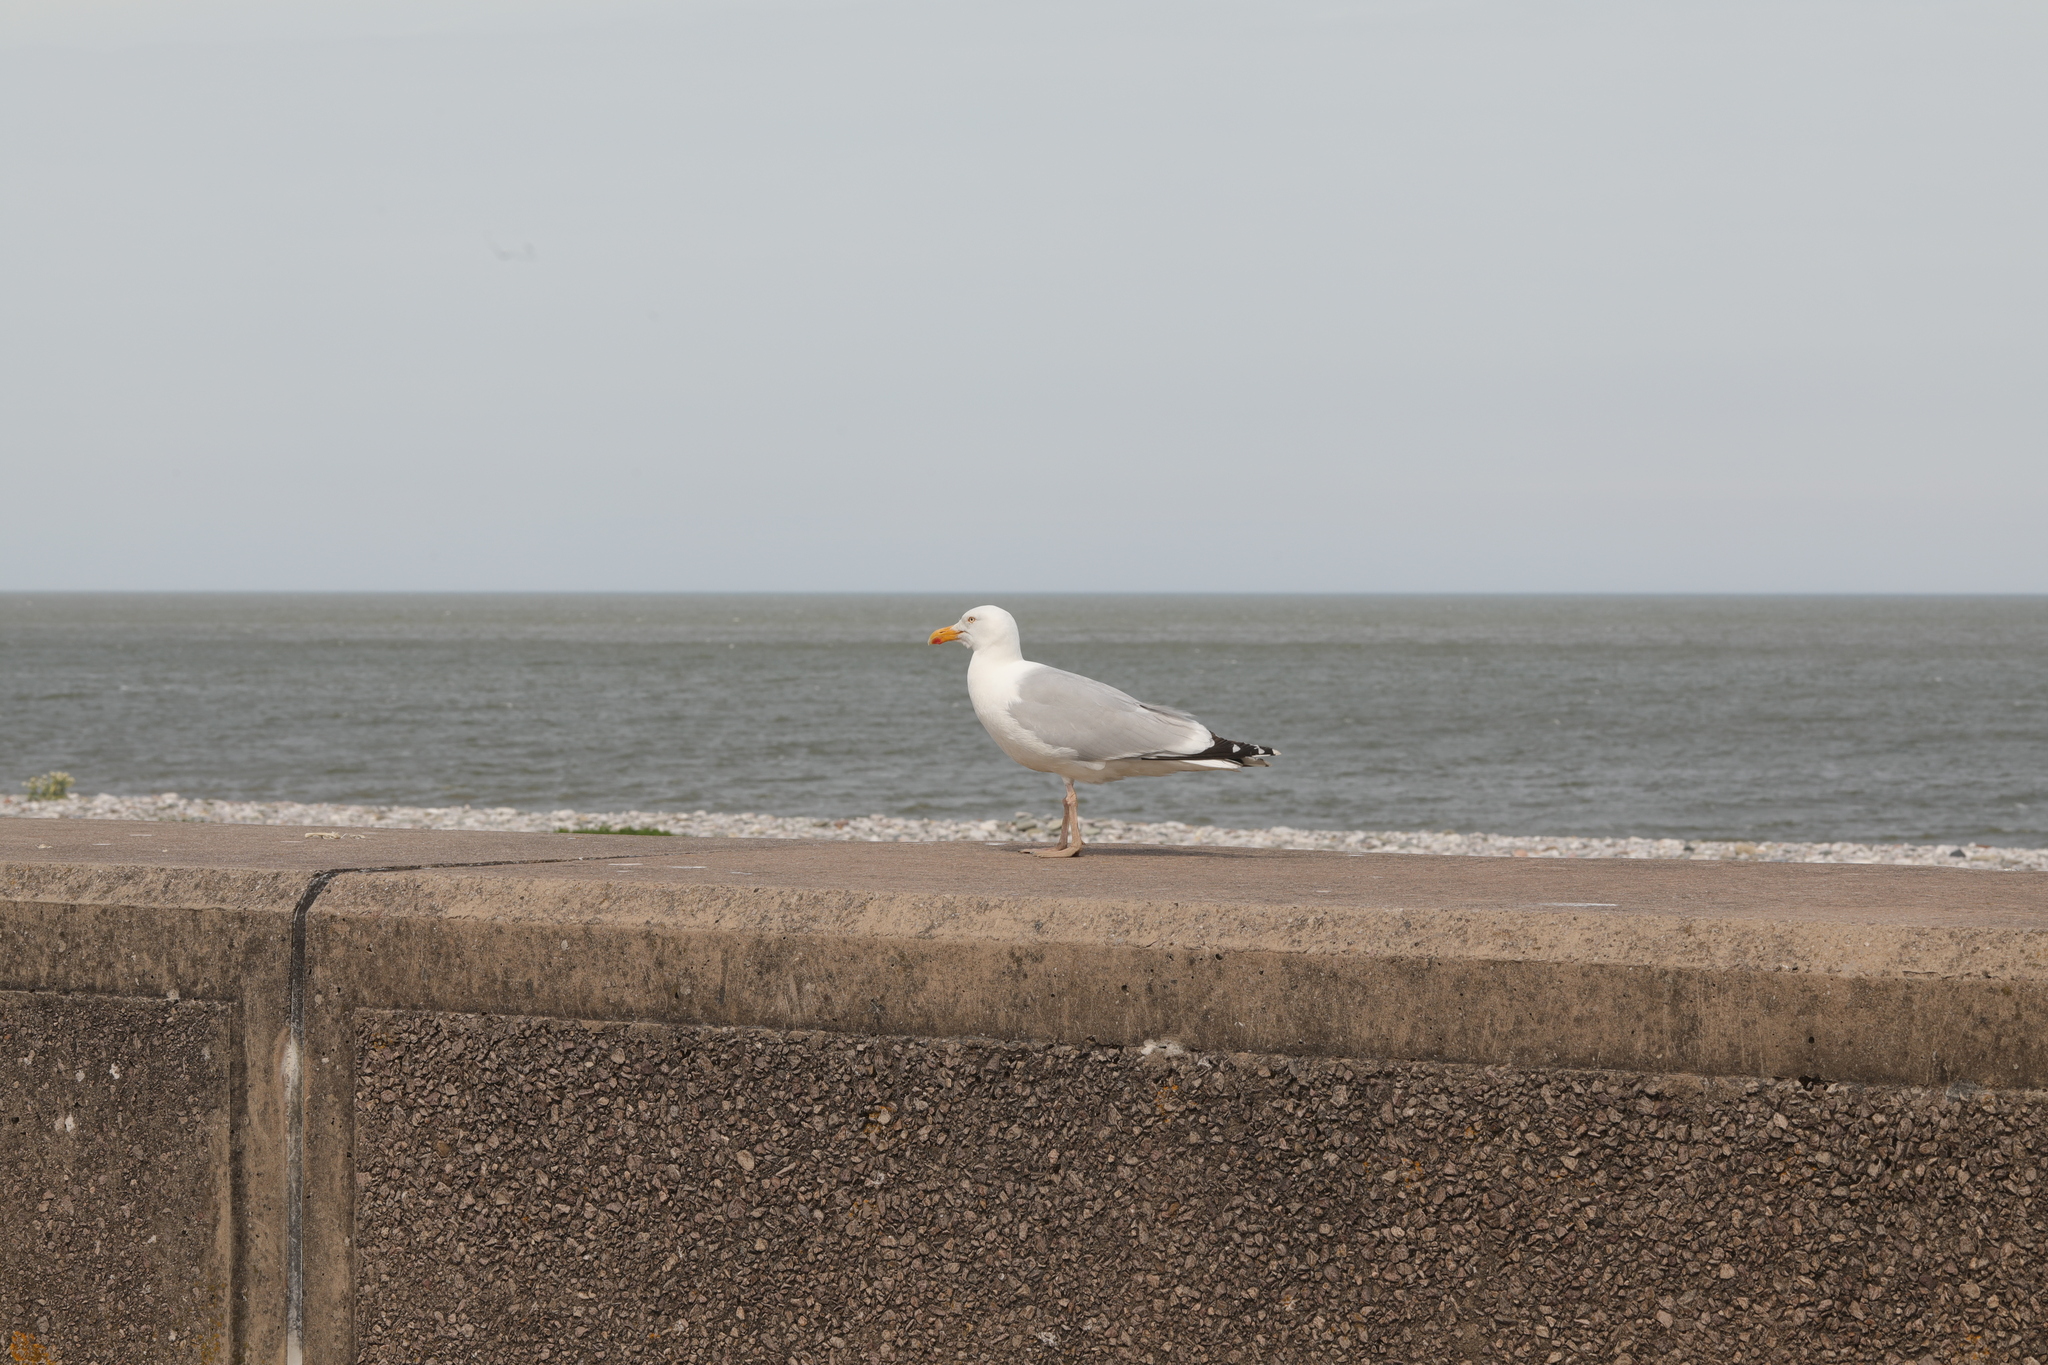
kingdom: Animalia
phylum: Chordata
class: Aves
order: Charadriiformes
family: Laridae
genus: Larus
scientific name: Larus argentatus
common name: Herring gull
